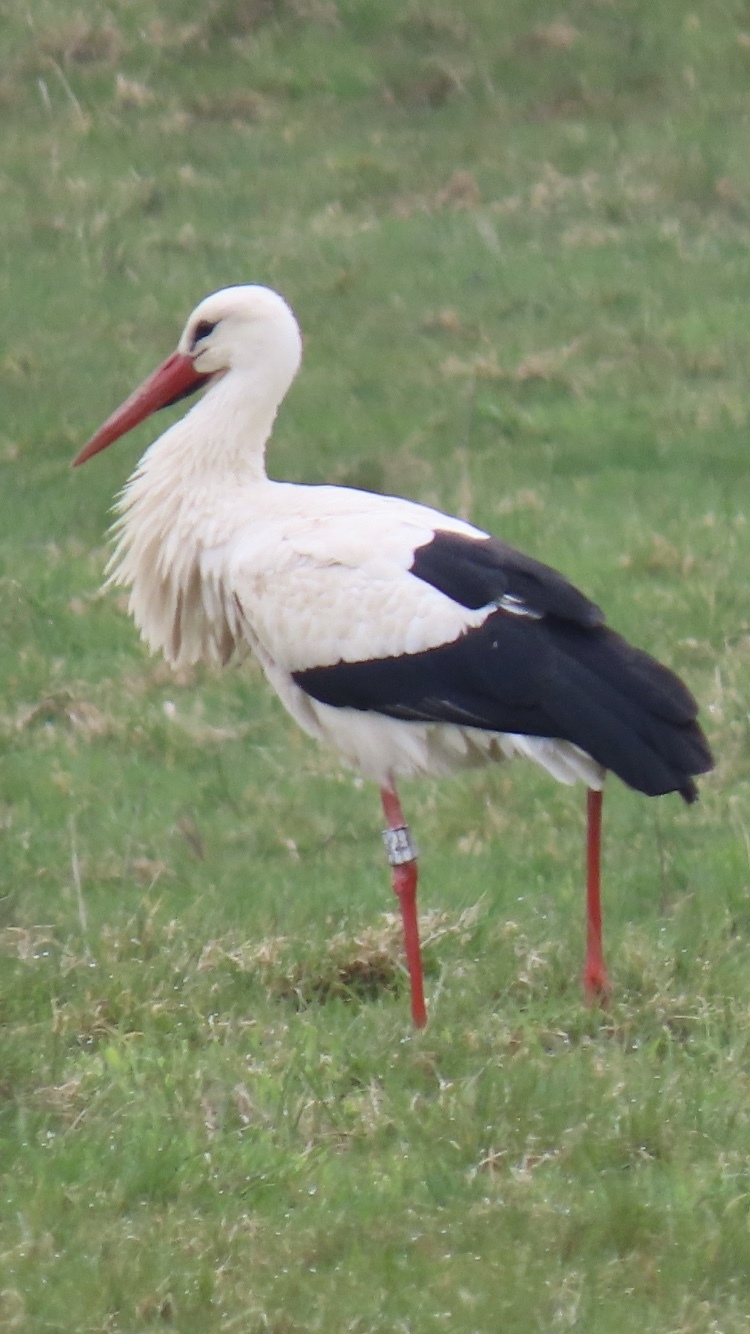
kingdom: Animalia
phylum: Chordata
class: Aves
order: Ciconiiformes
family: Ciconiidae
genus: Ciconia
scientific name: Ciconia ciconia
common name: White stork
